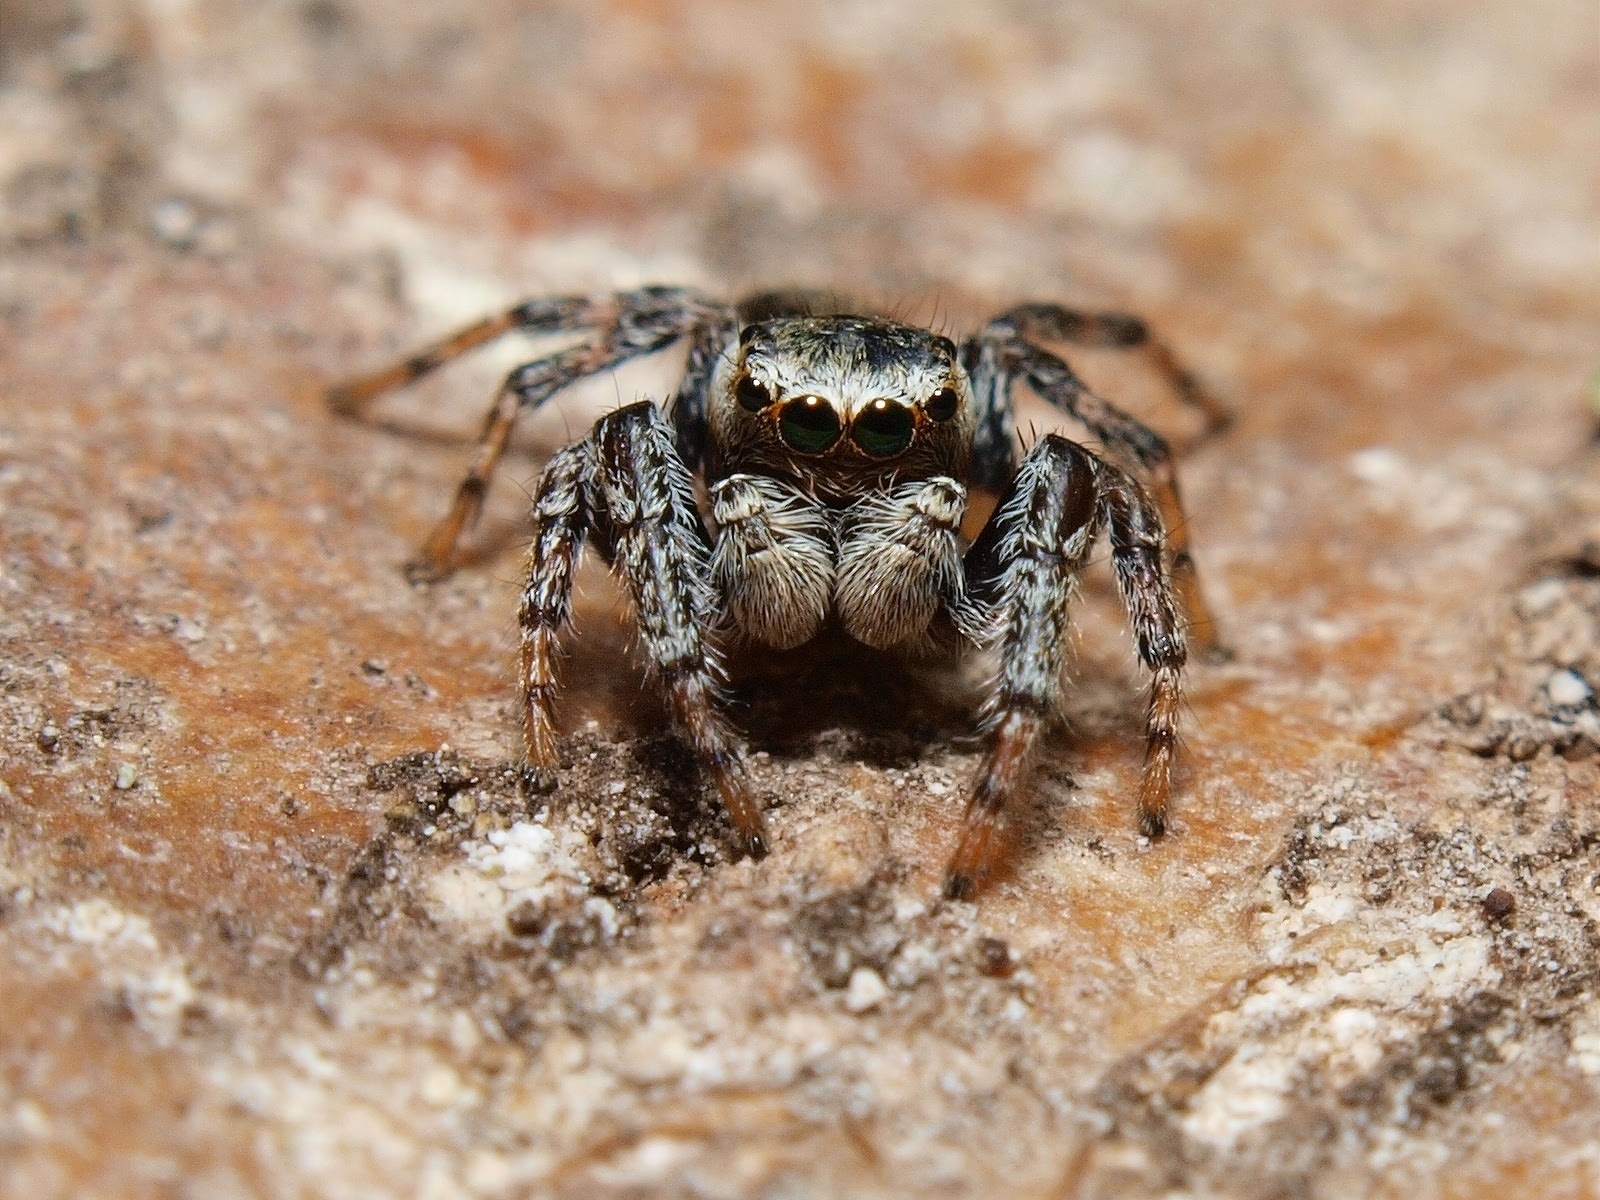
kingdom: Animalia
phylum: Arthropoda
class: Arachnida
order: Araneae
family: Salticidae
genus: Evarcha
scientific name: Evarcha falcata
